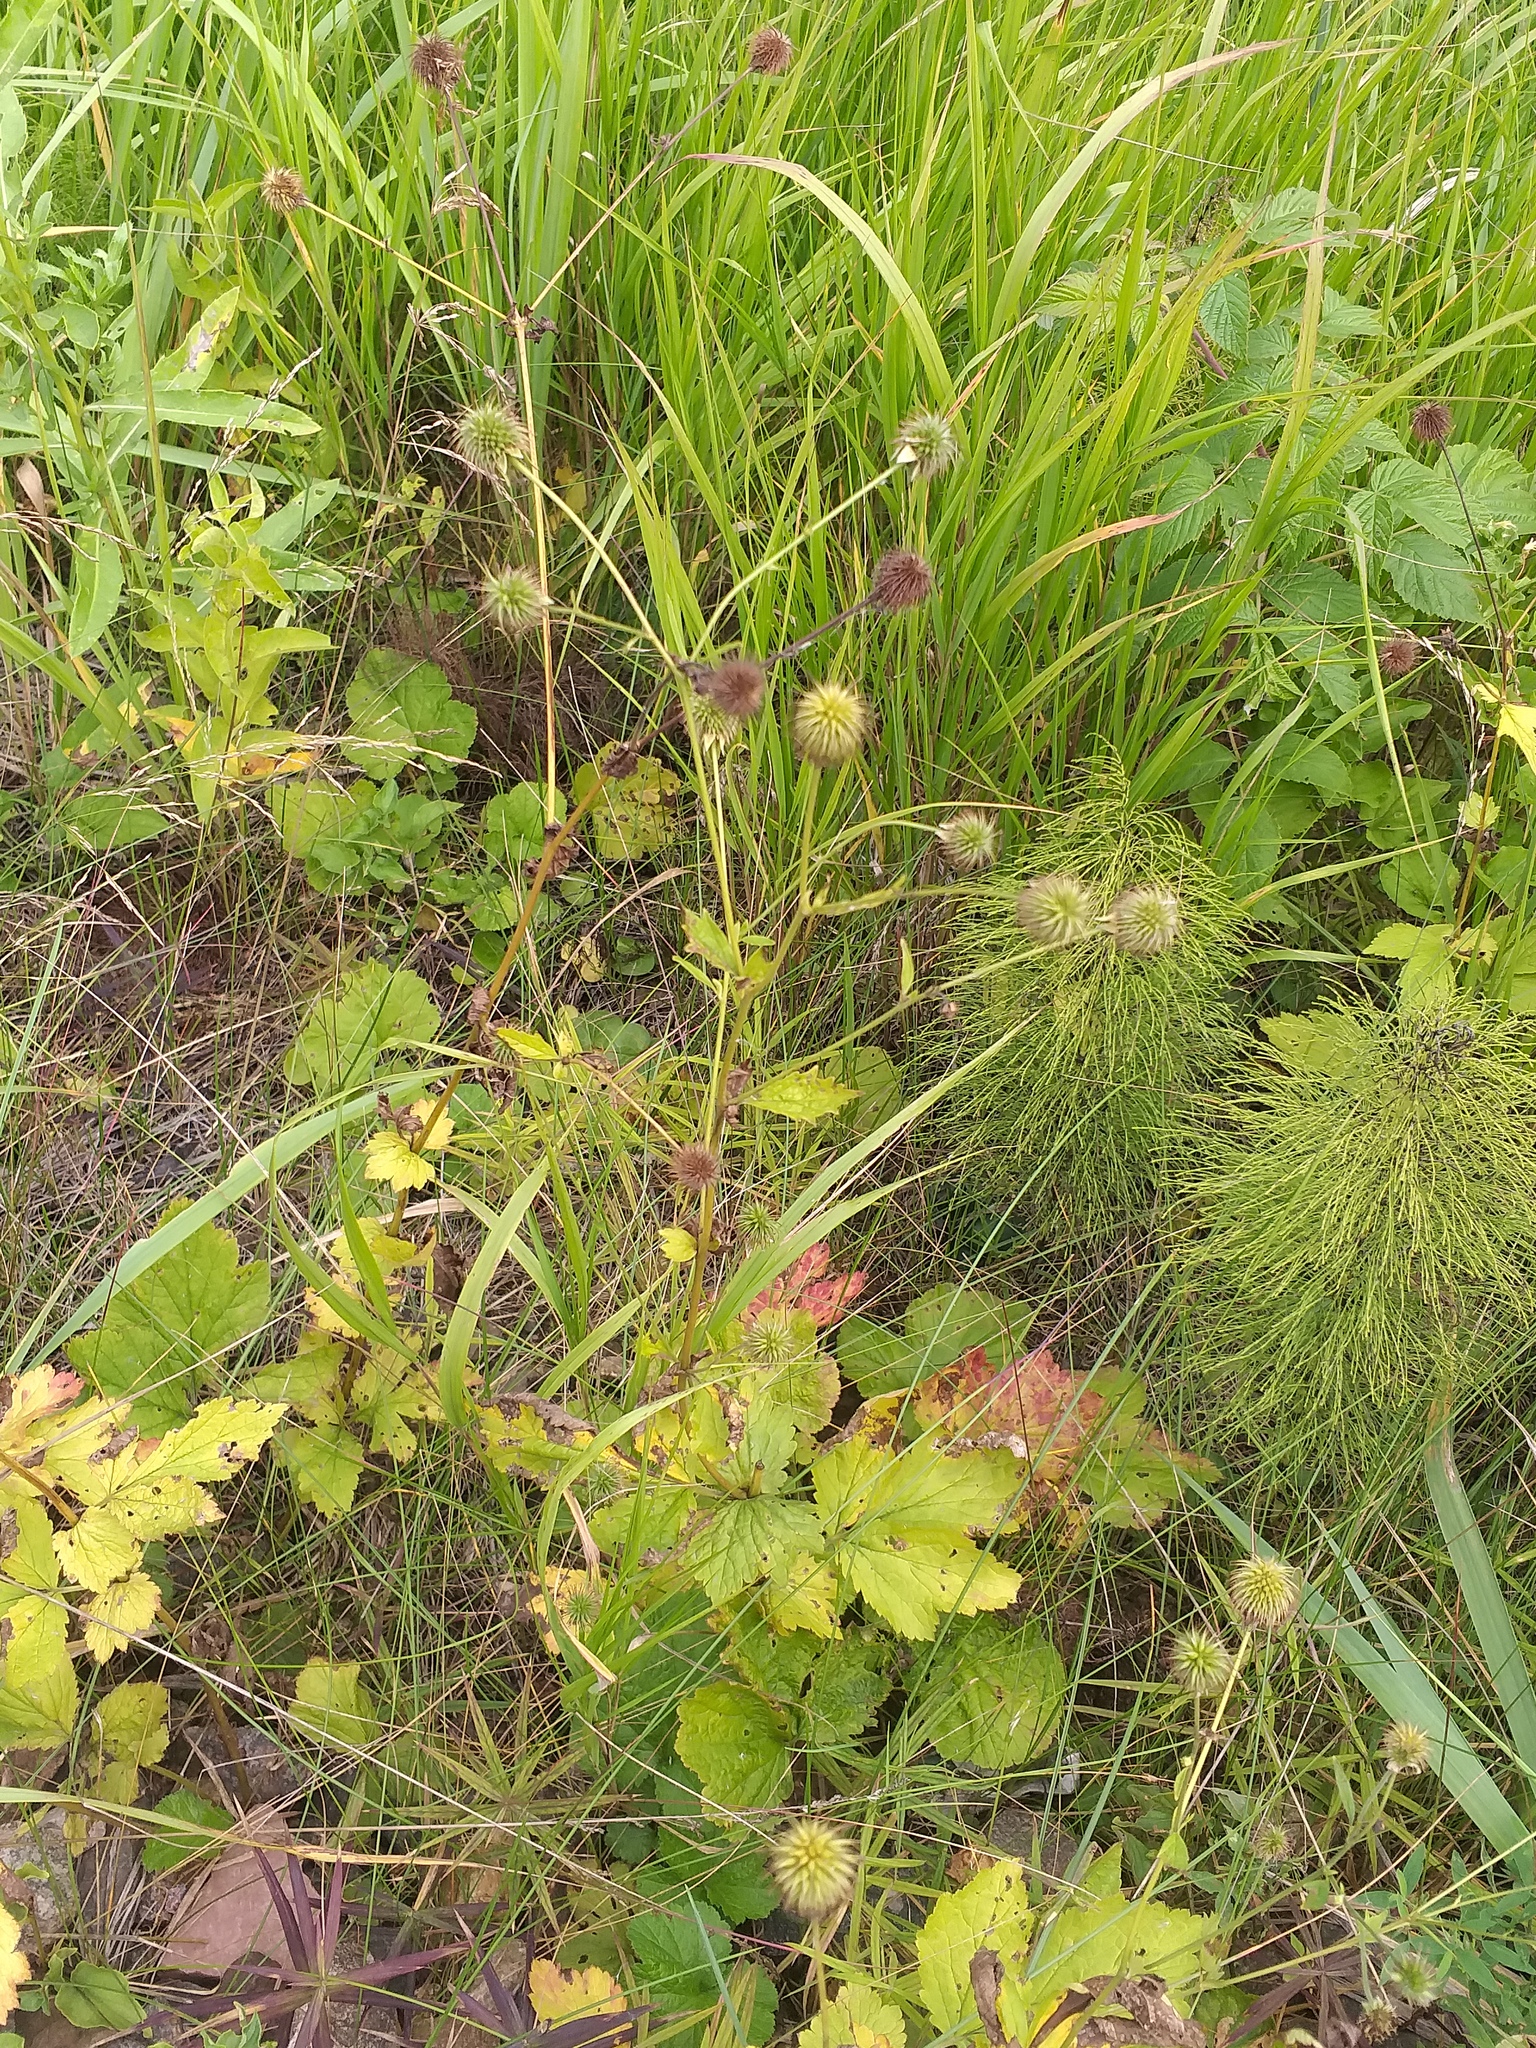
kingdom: Plantae
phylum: Tracheophyta
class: Magnoliopsida
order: Rosales
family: Rosaceae
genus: Geum
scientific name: Geum urbanum
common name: Wood avens
